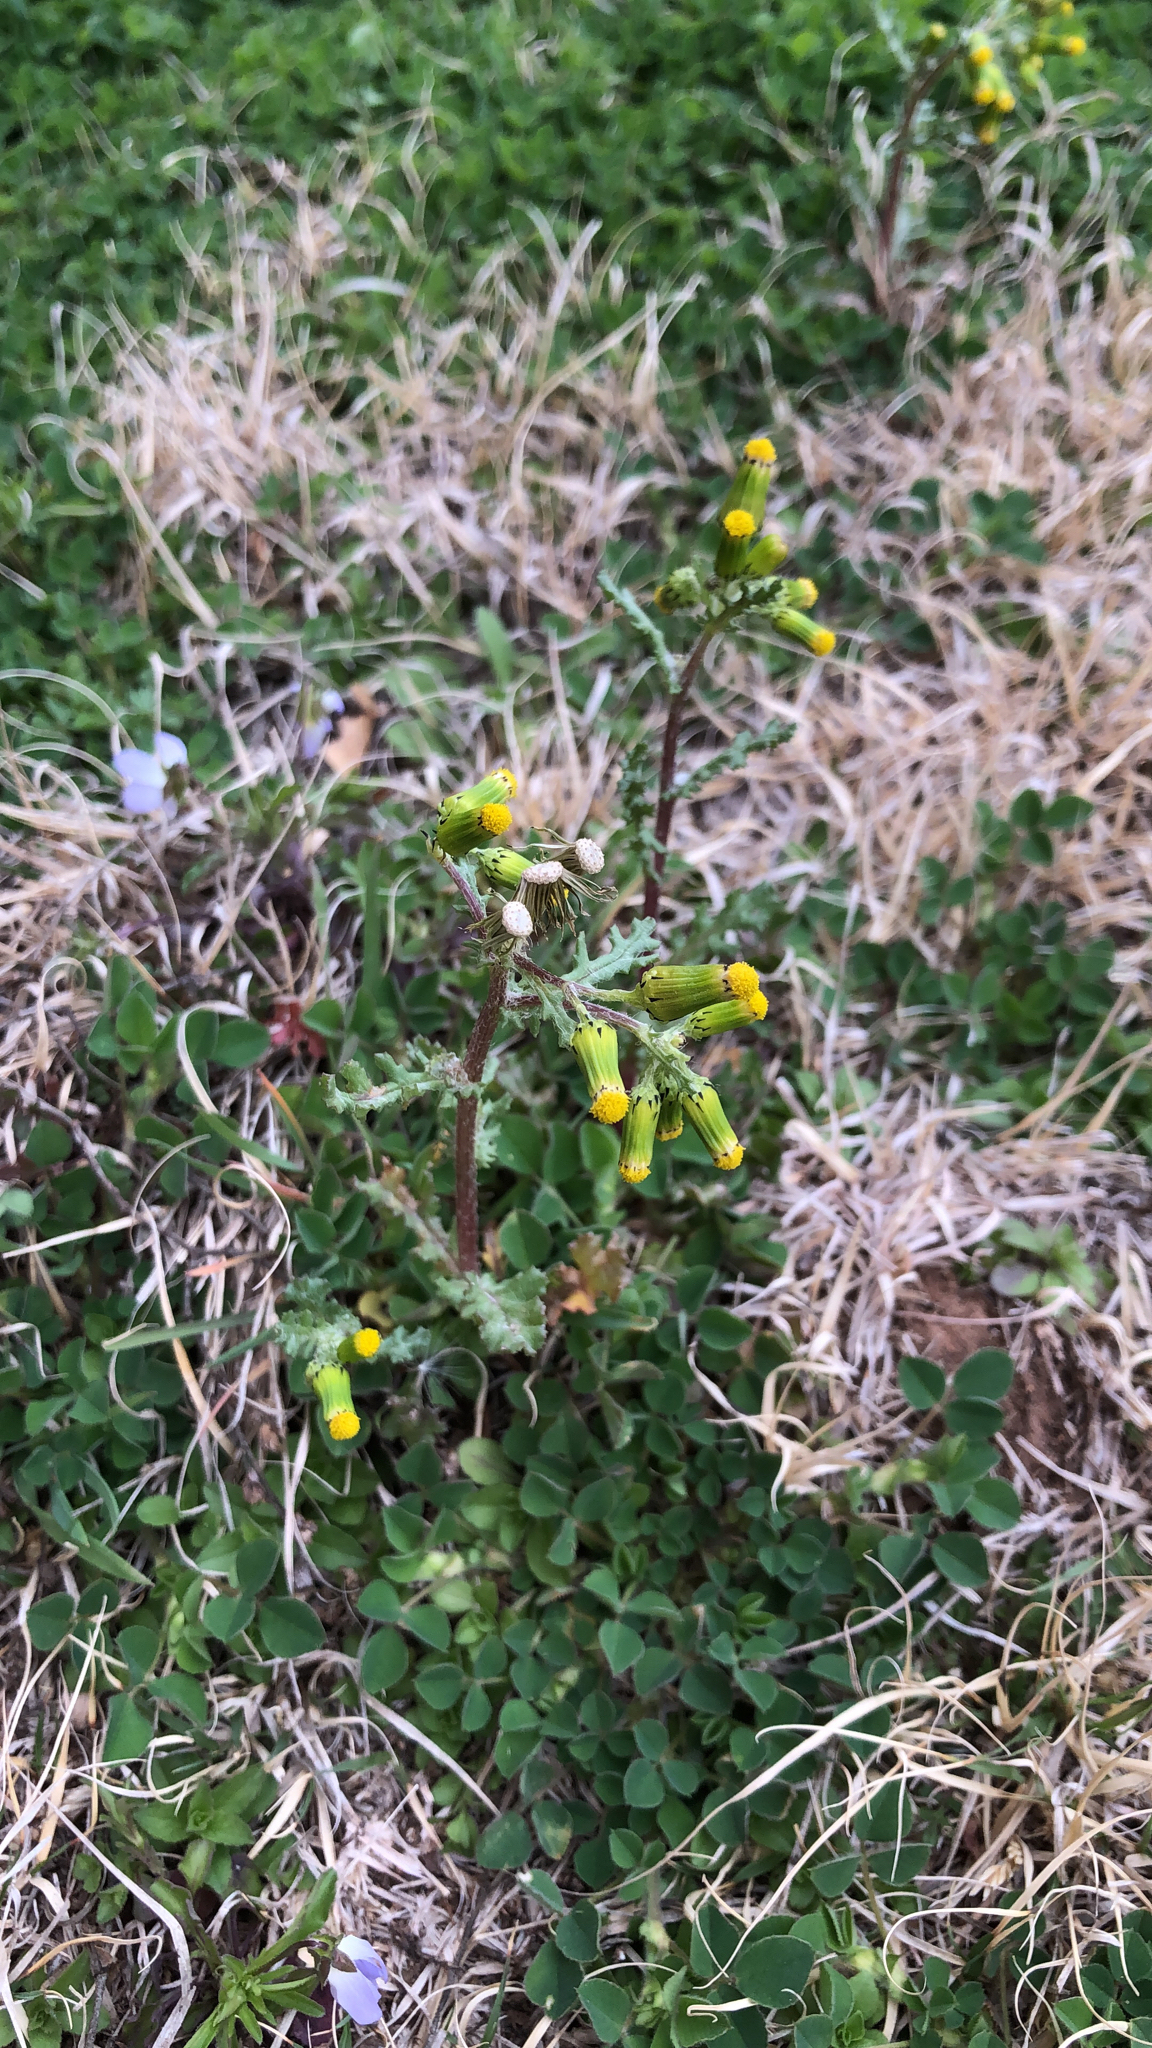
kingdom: Plantae
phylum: Tracheophyta
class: Magnoliopsida
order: Asterales
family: Asteraceae
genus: Senecio
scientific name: Senecio vulgaris
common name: Old-man-in-the-spring
